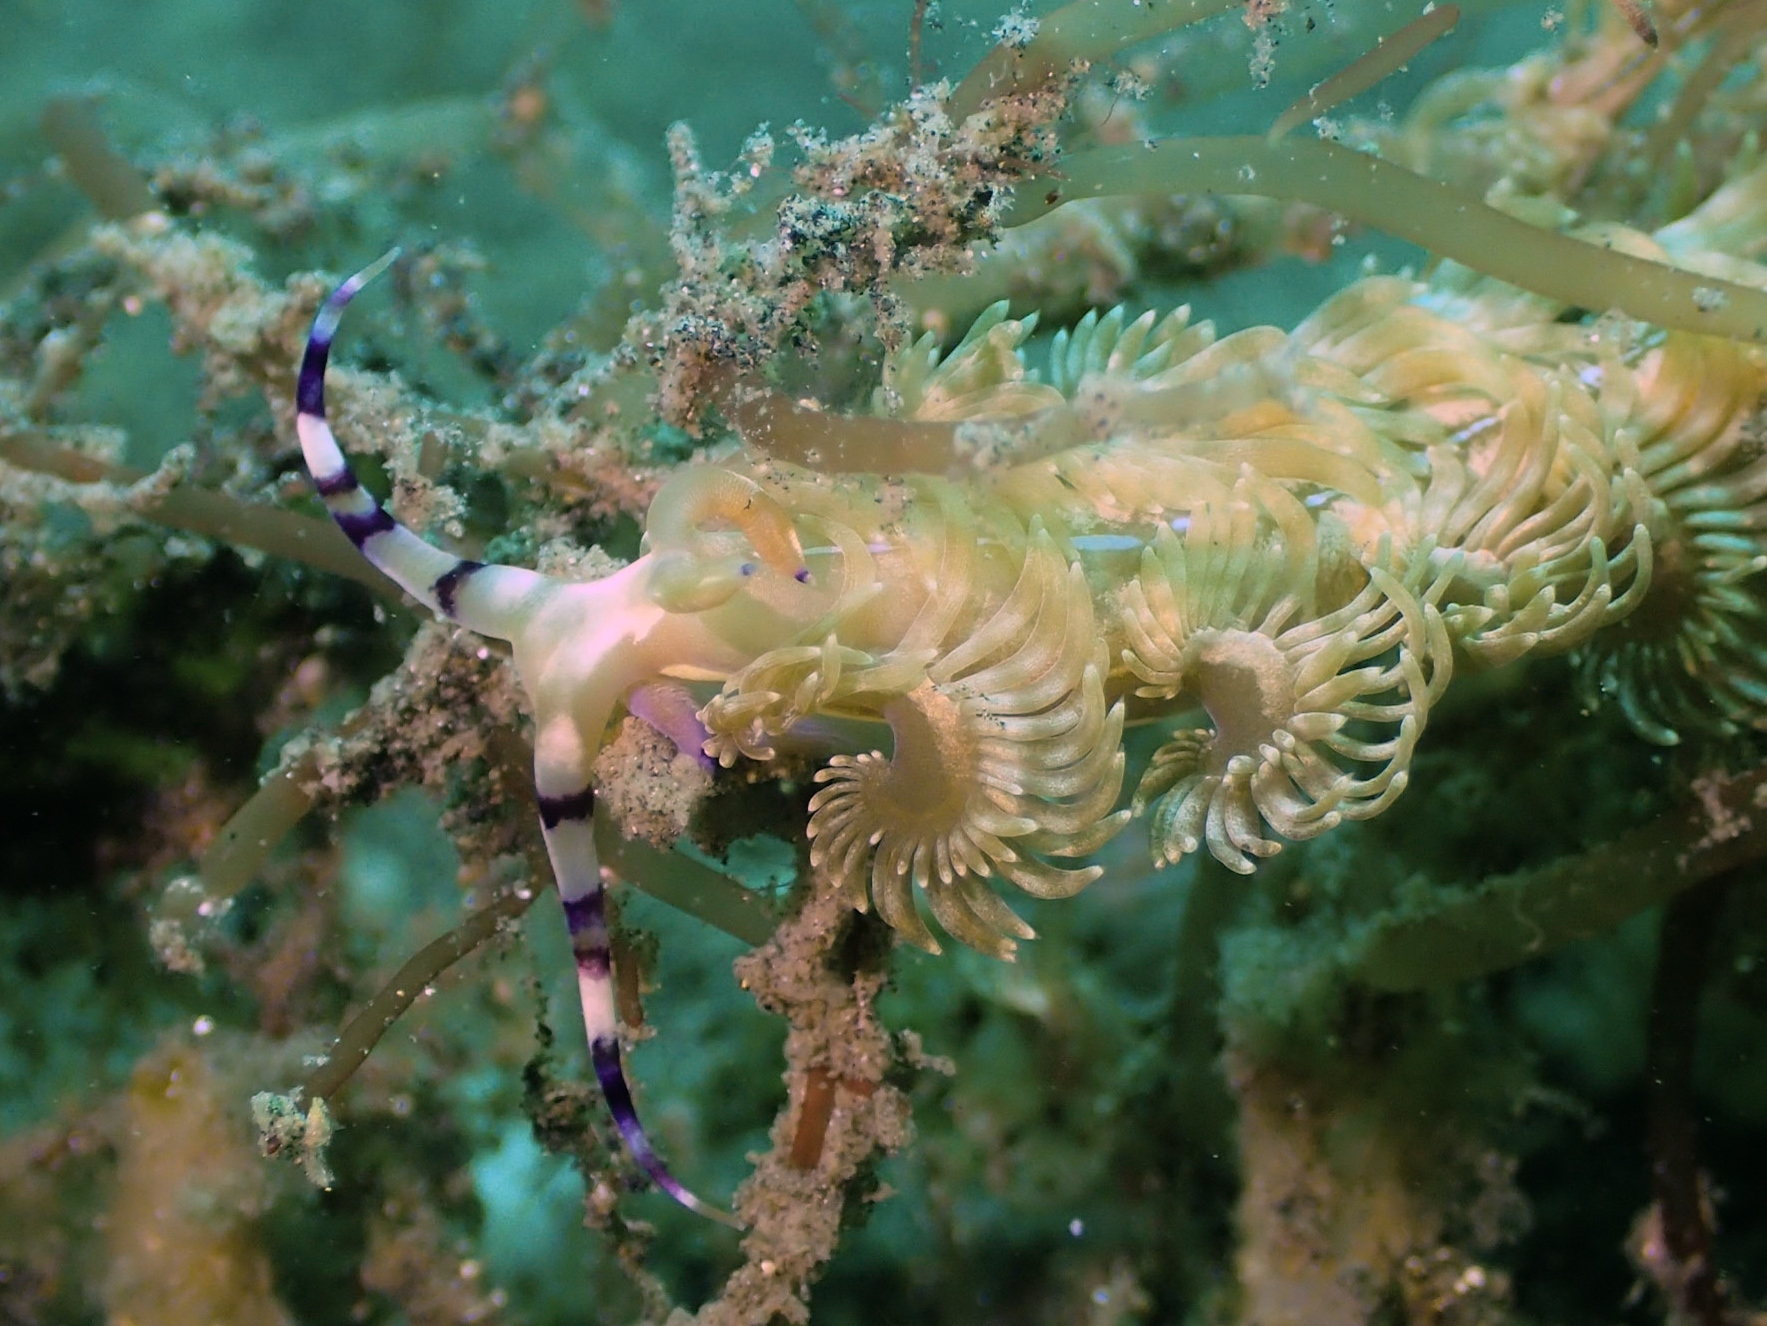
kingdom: Animalia
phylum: Mollusca
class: Gastropoda
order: Nudibranchia
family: Facelinidae
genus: Pteraeolidia
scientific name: Pteraeolidia semperi
